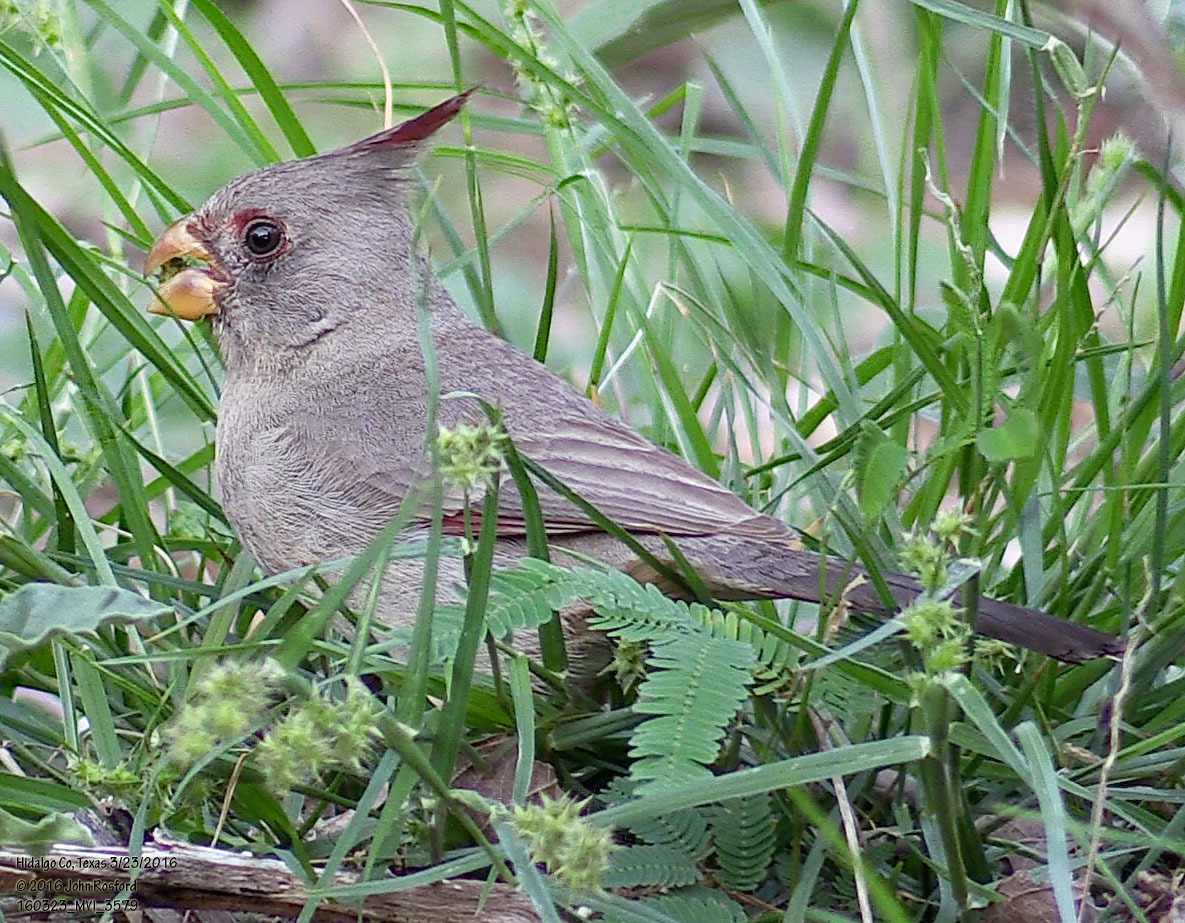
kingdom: Animalia
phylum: Chordata
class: Aves
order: Passeriformes
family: Cardinalidae
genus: Cardinalis
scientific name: Cardinalis sinuatus
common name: Pyrrhuloxia
